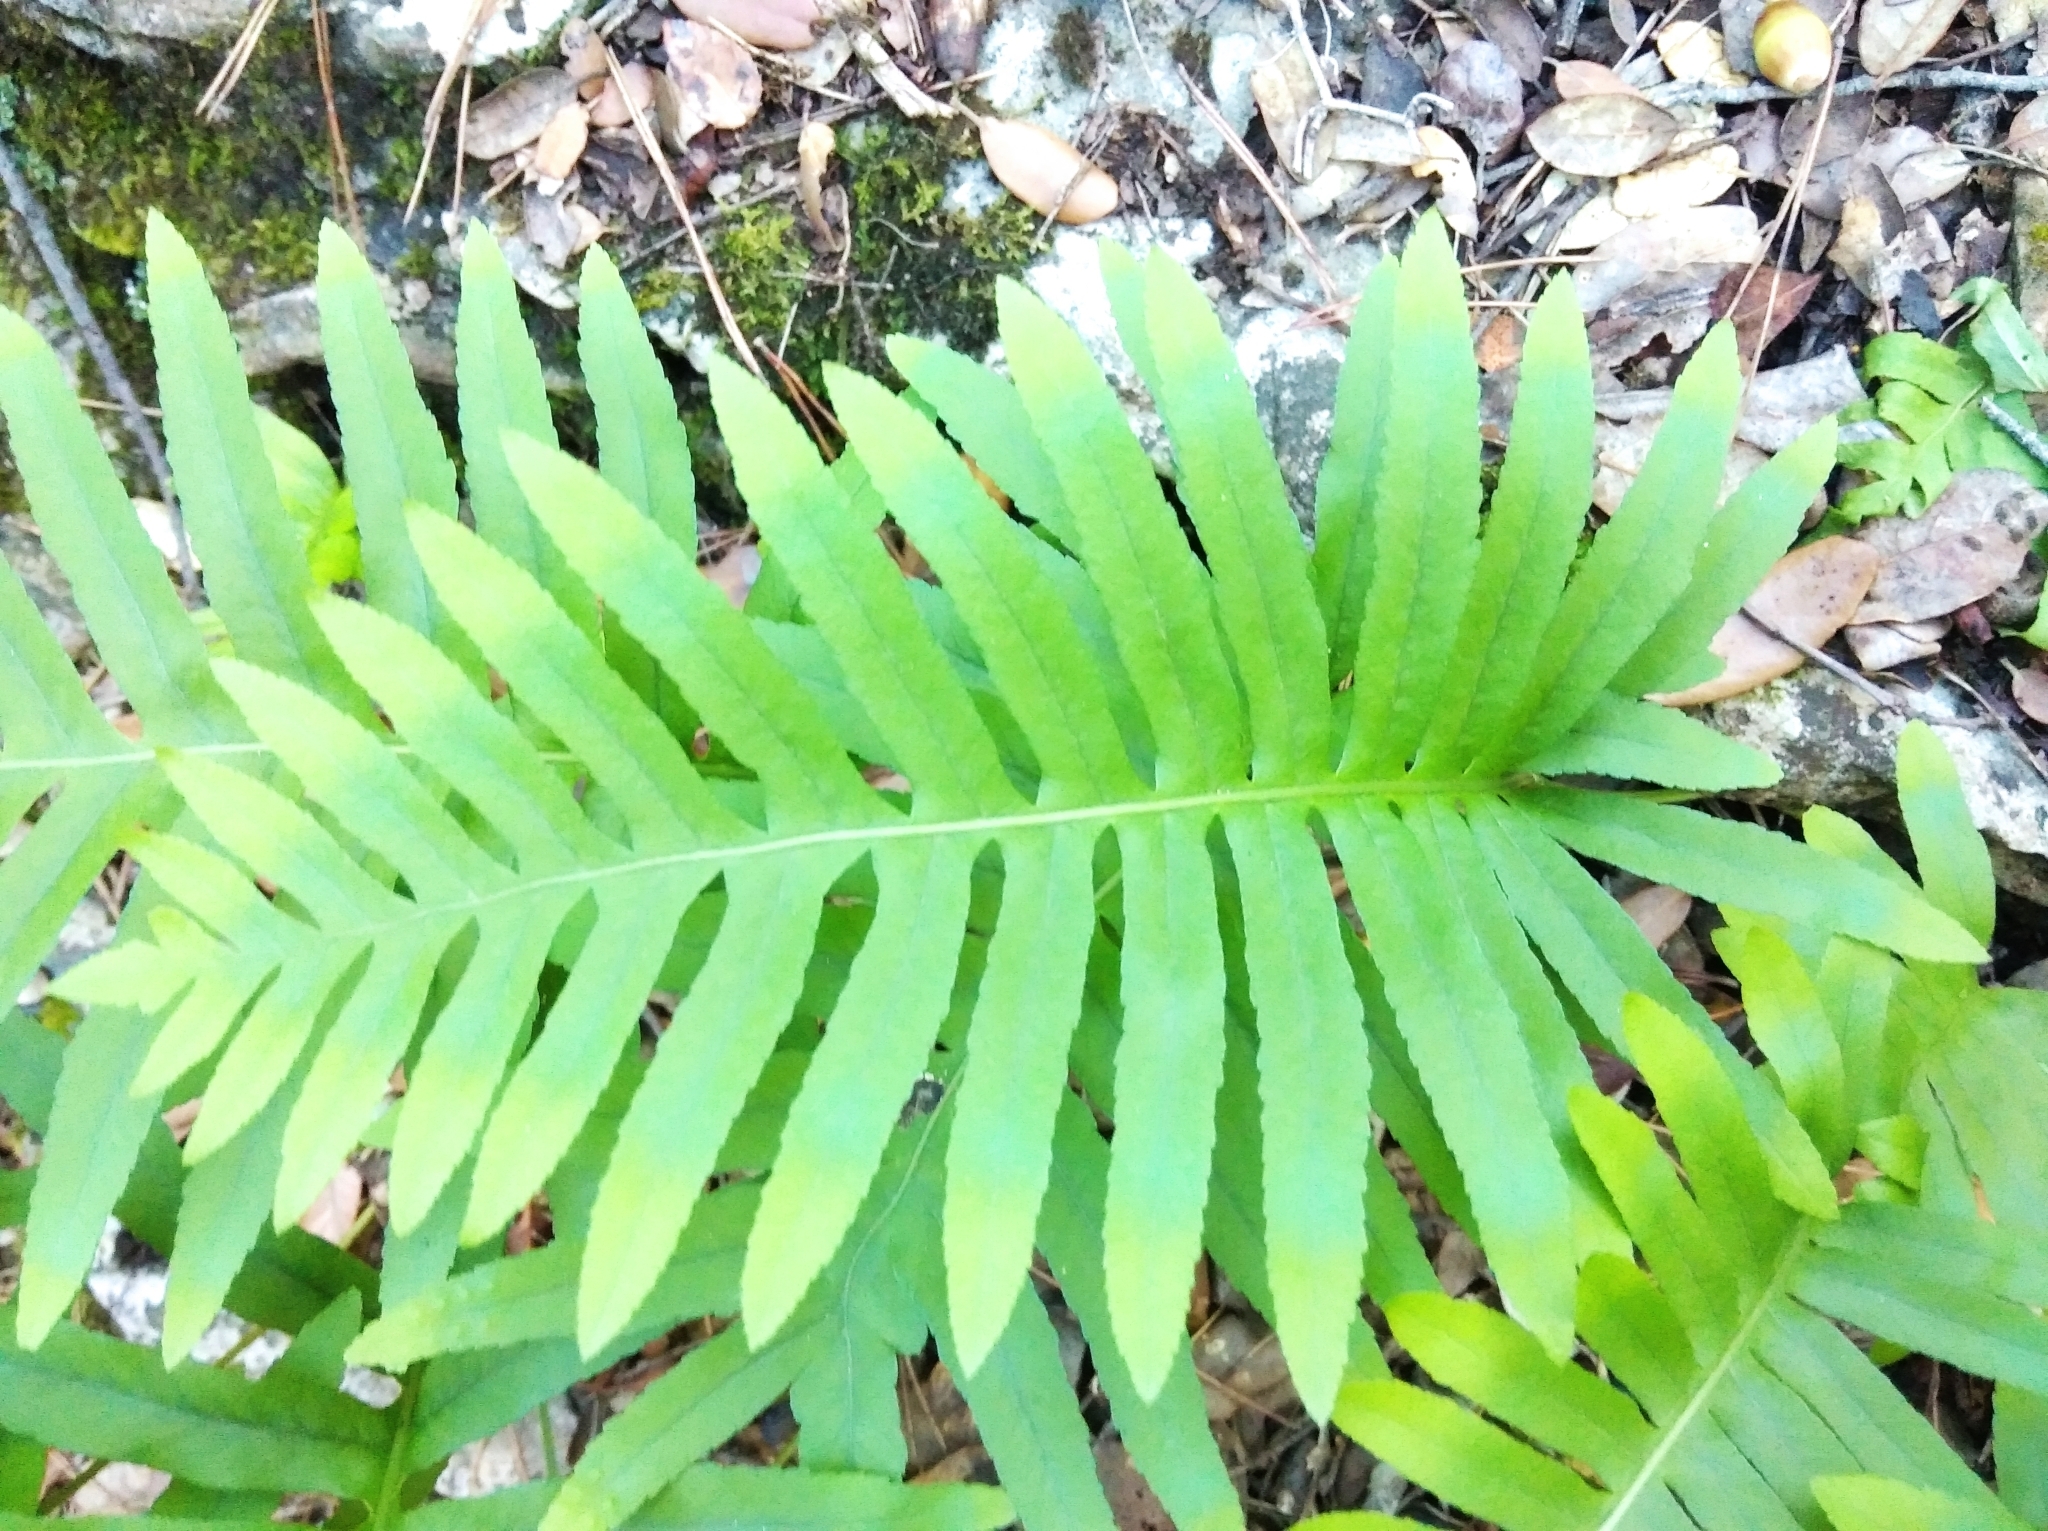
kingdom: Plantae
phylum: Tracheophyta
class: Polypodiopsida
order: Polypodiales
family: Polypodiaceae
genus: Polypodium
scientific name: Polypodium cambricum
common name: Southern polypody
